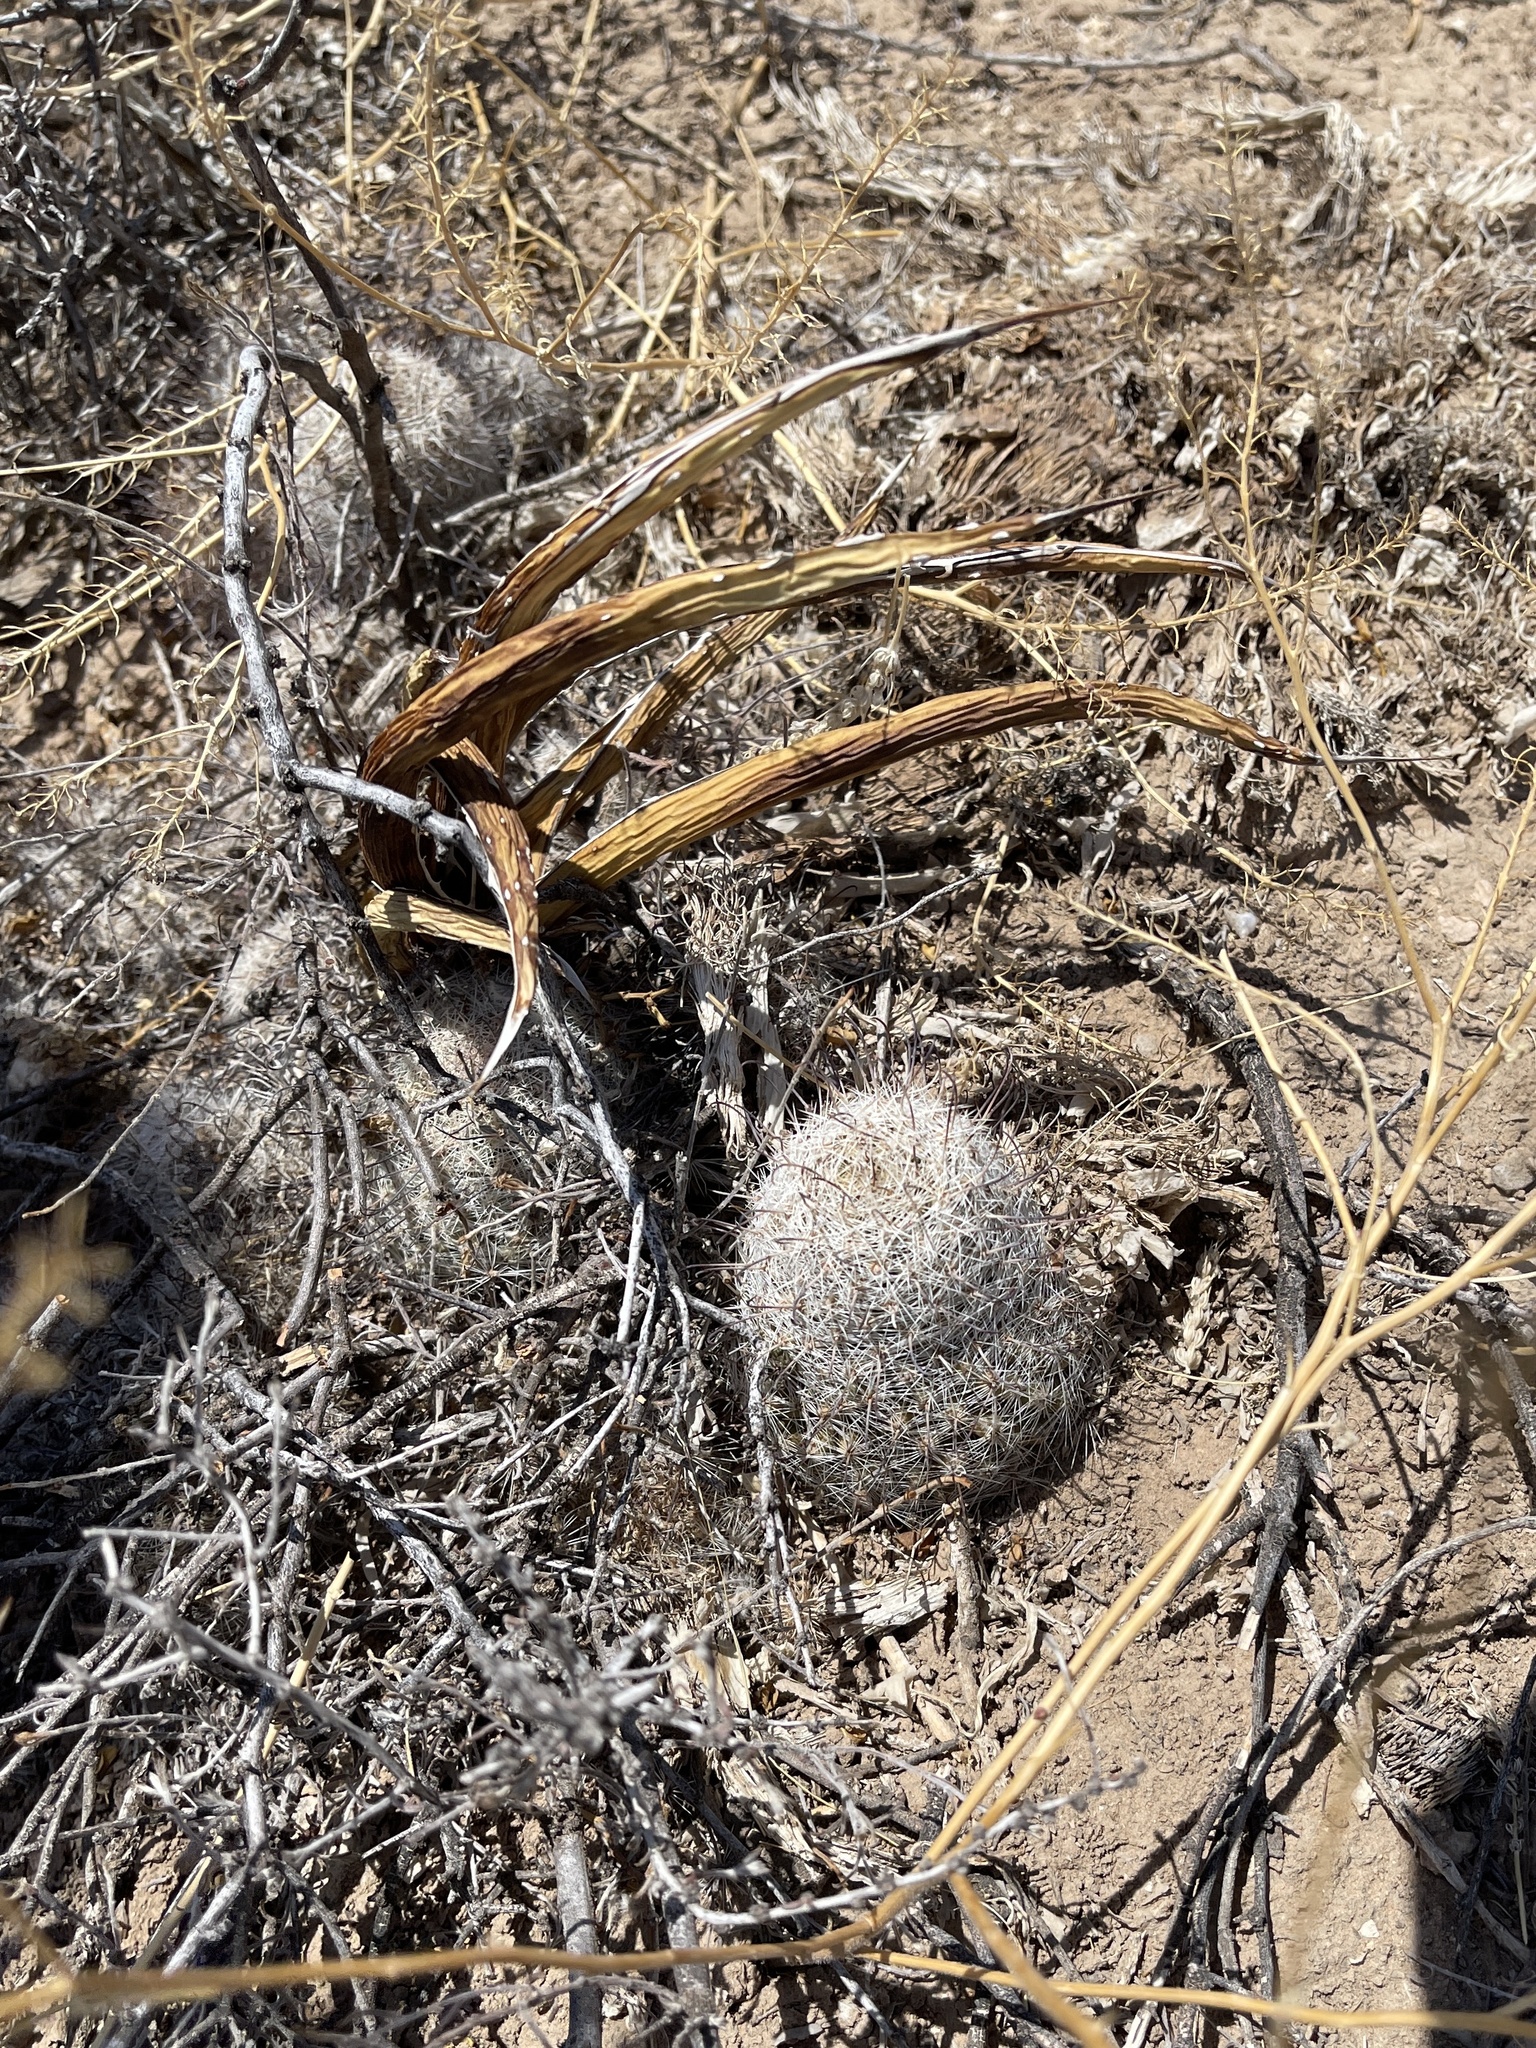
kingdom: Plantae
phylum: Tracheophyta
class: Magnoliopsida
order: Caryophyllales
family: Cactaceae
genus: Cochemiea
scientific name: Cochemiea grahamii
